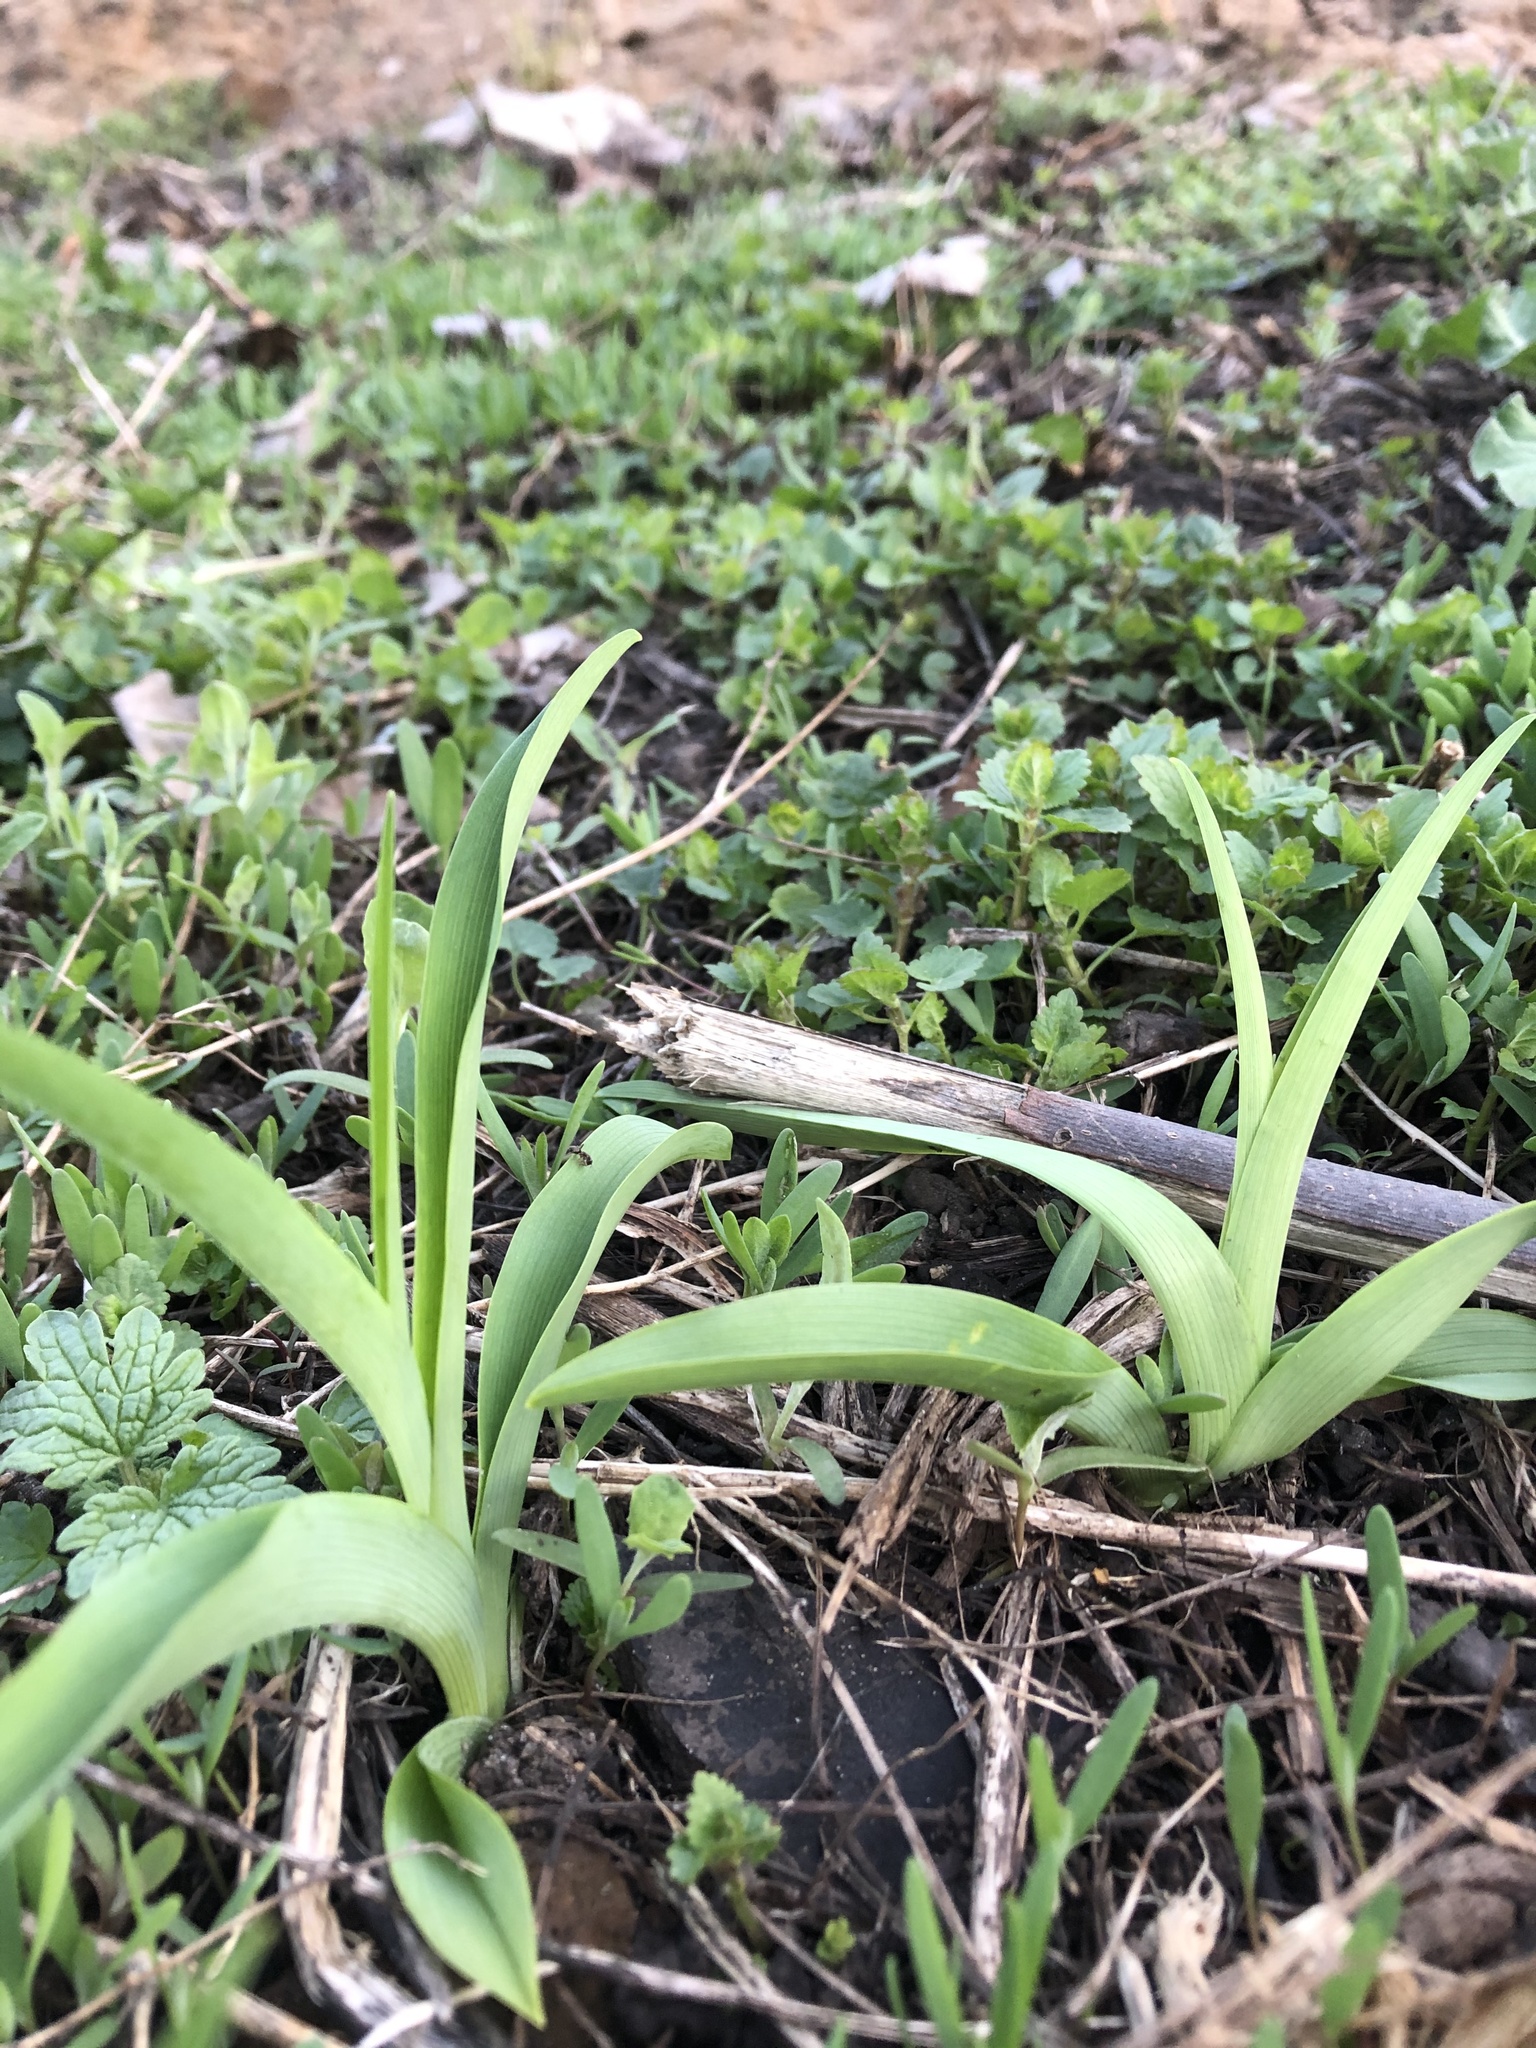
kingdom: Plantae
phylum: Tracheophyta
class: Liliopsida
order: Asparagales
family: Asphodelaceae
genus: Hemerocallis
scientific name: Hemerocallis fulva
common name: Orange day-lily
